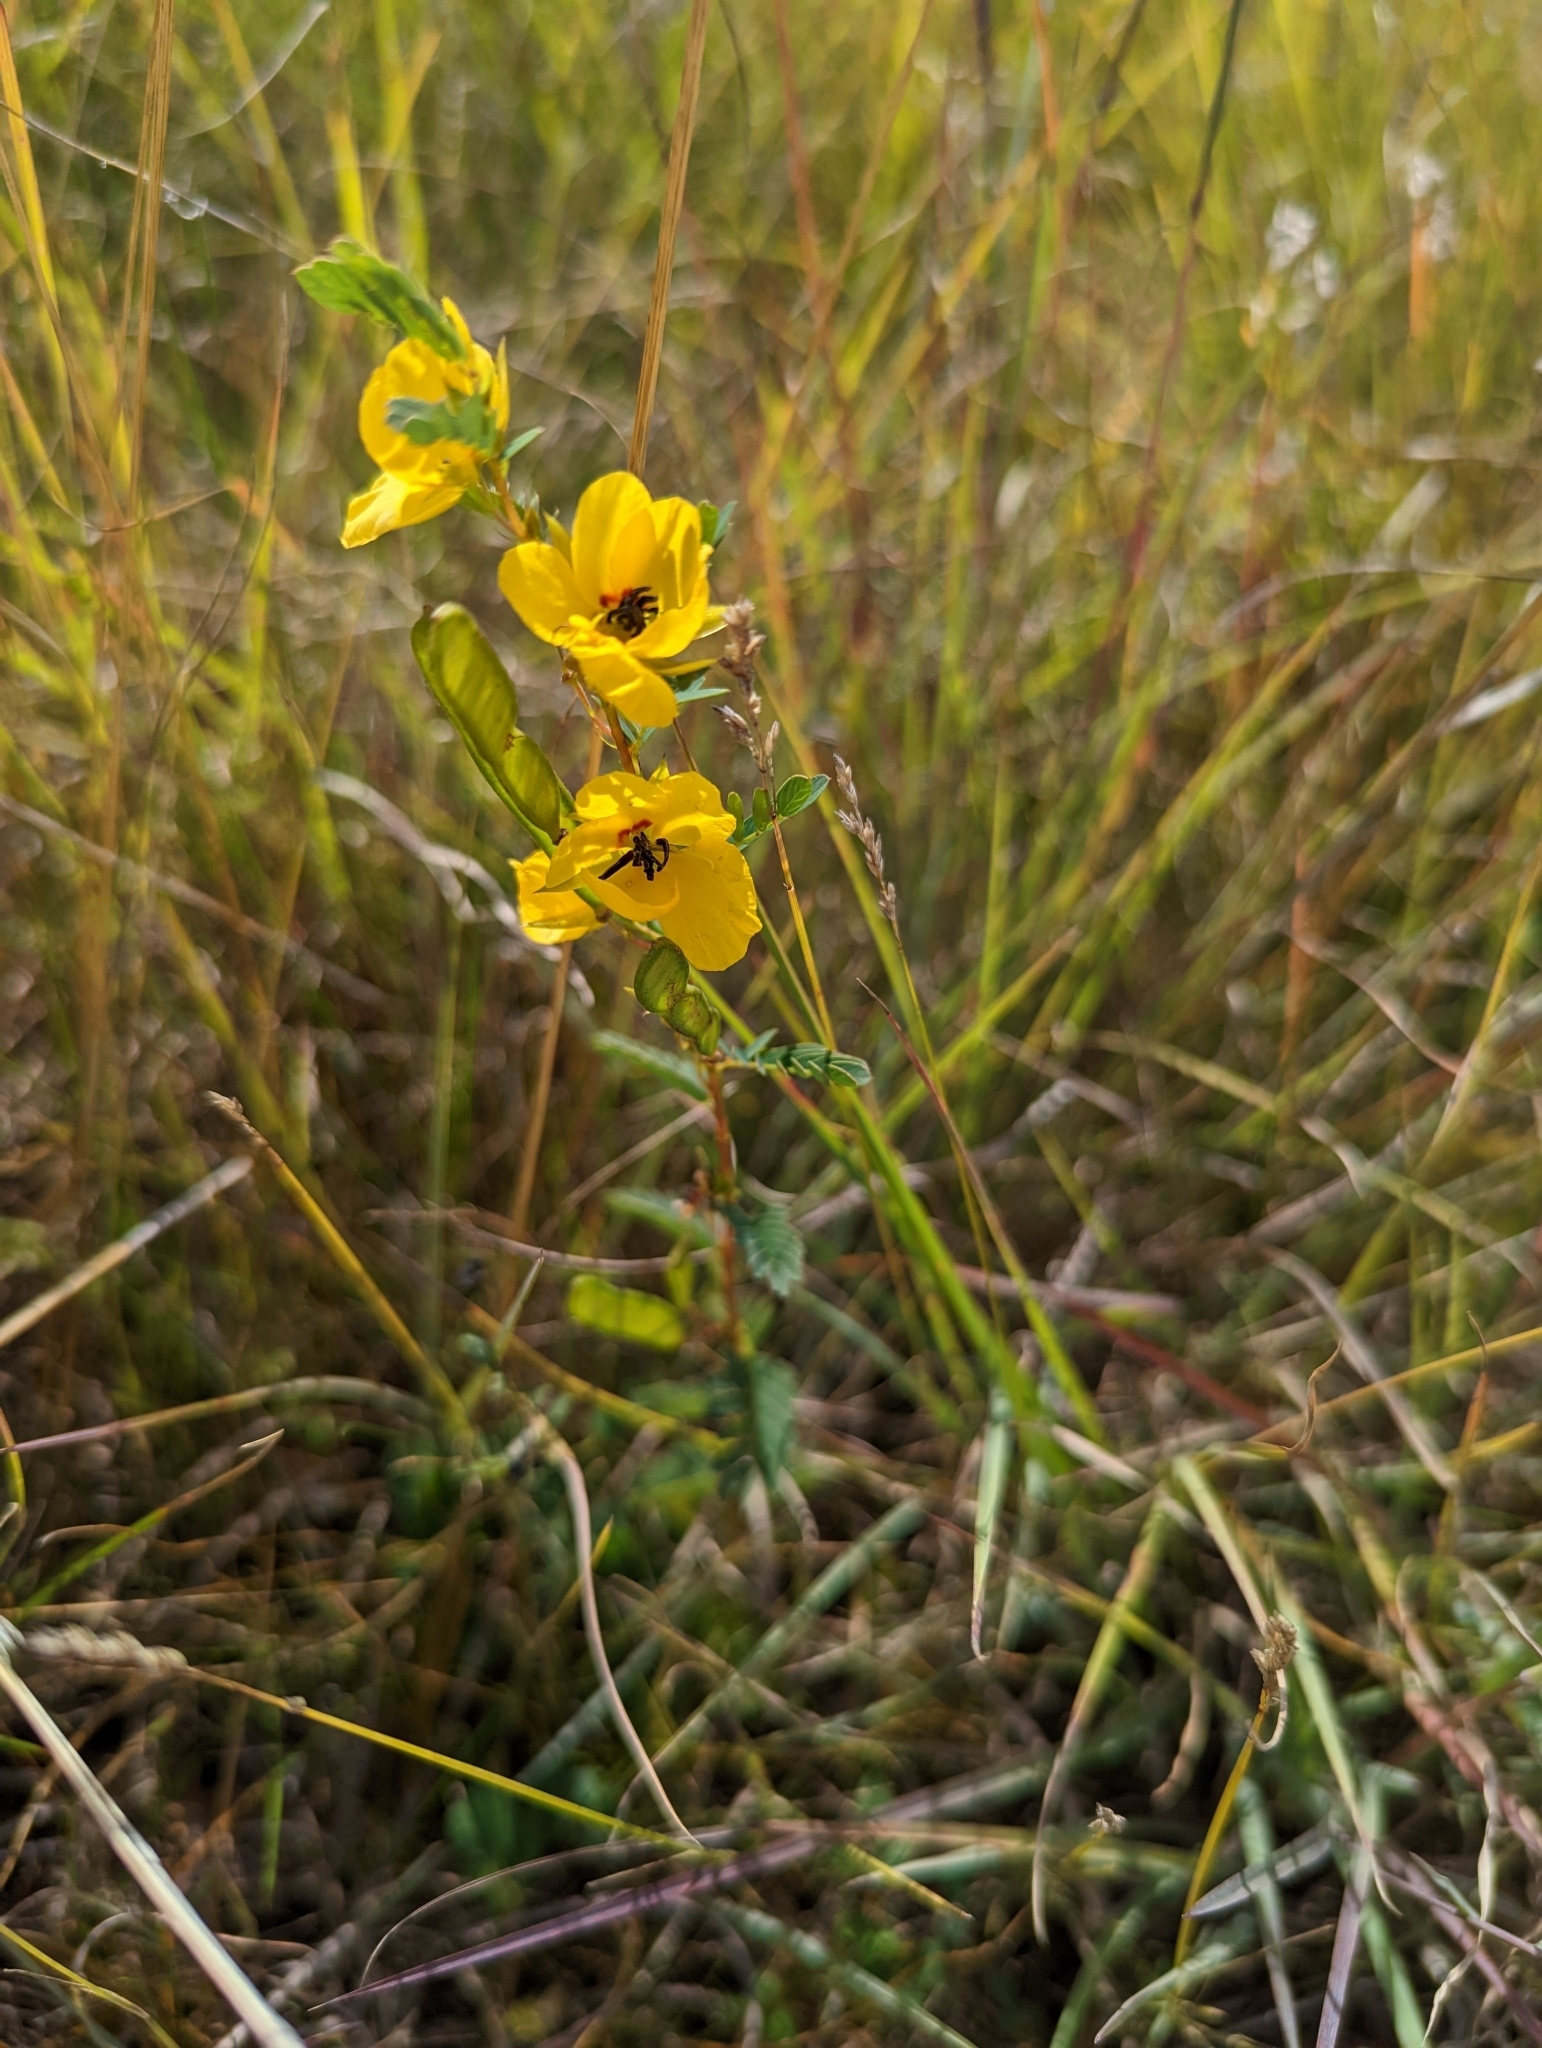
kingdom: Plantae
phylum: Tracheophyta
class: Magnoliopsida
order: Fabales
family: Fabaceae
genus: Chamaecrista
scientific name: Chamaecrista fasciculata
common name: Golden cassia
